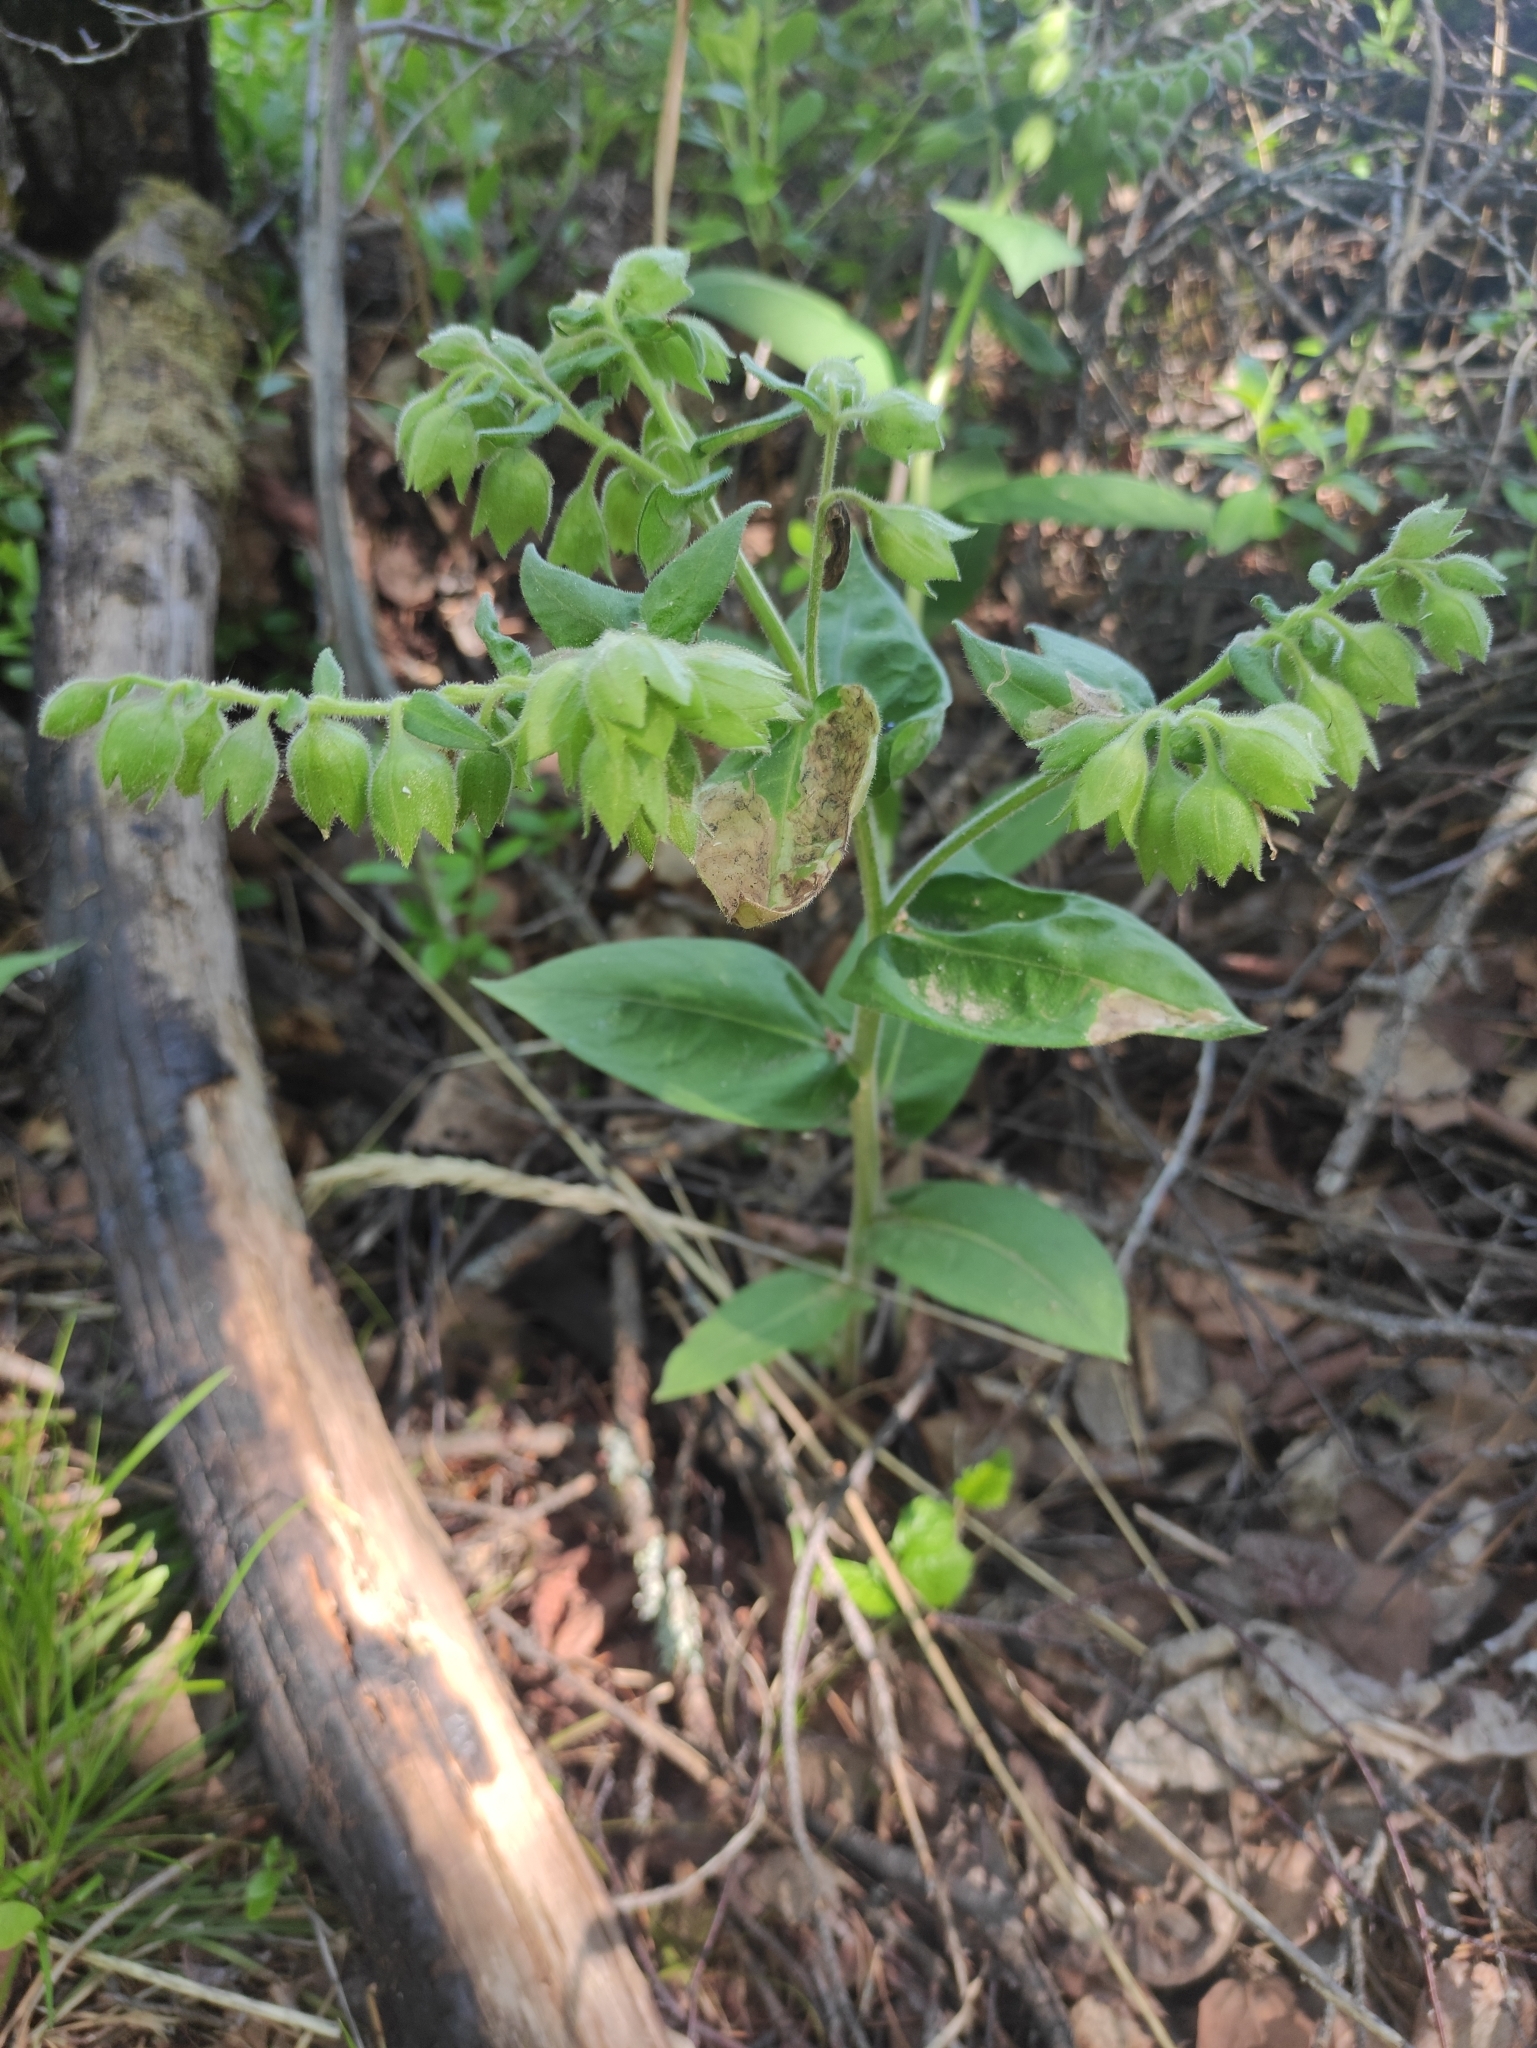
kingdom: Plantae
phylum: Tracheophyta
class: Magnoliopsida
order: Boraginales
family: Boraginaceae
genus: Pulmonaria
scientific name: Pulmonaria mollis
